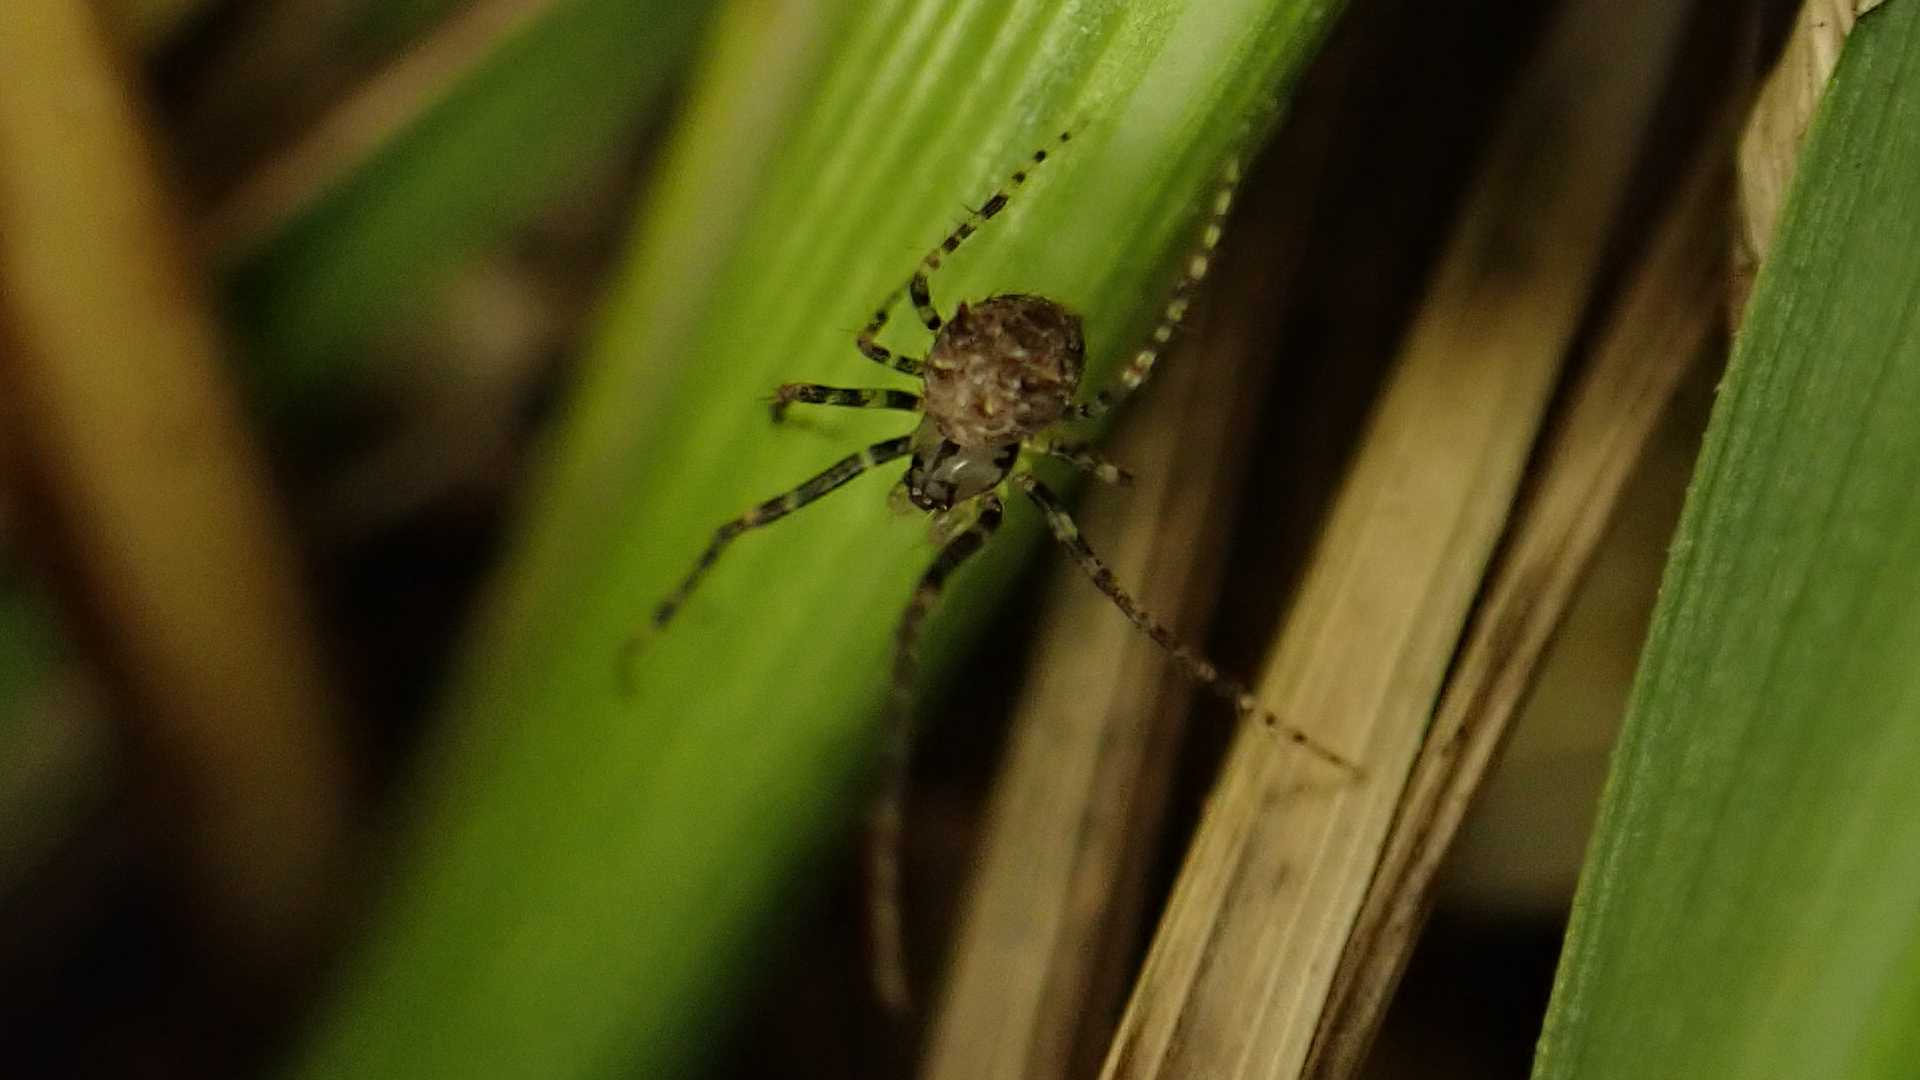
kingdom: Animalia
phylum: Arthropoda
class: Arachnida
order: Araneae
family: Mimetidae
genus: Ero
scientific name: Ero aphana
